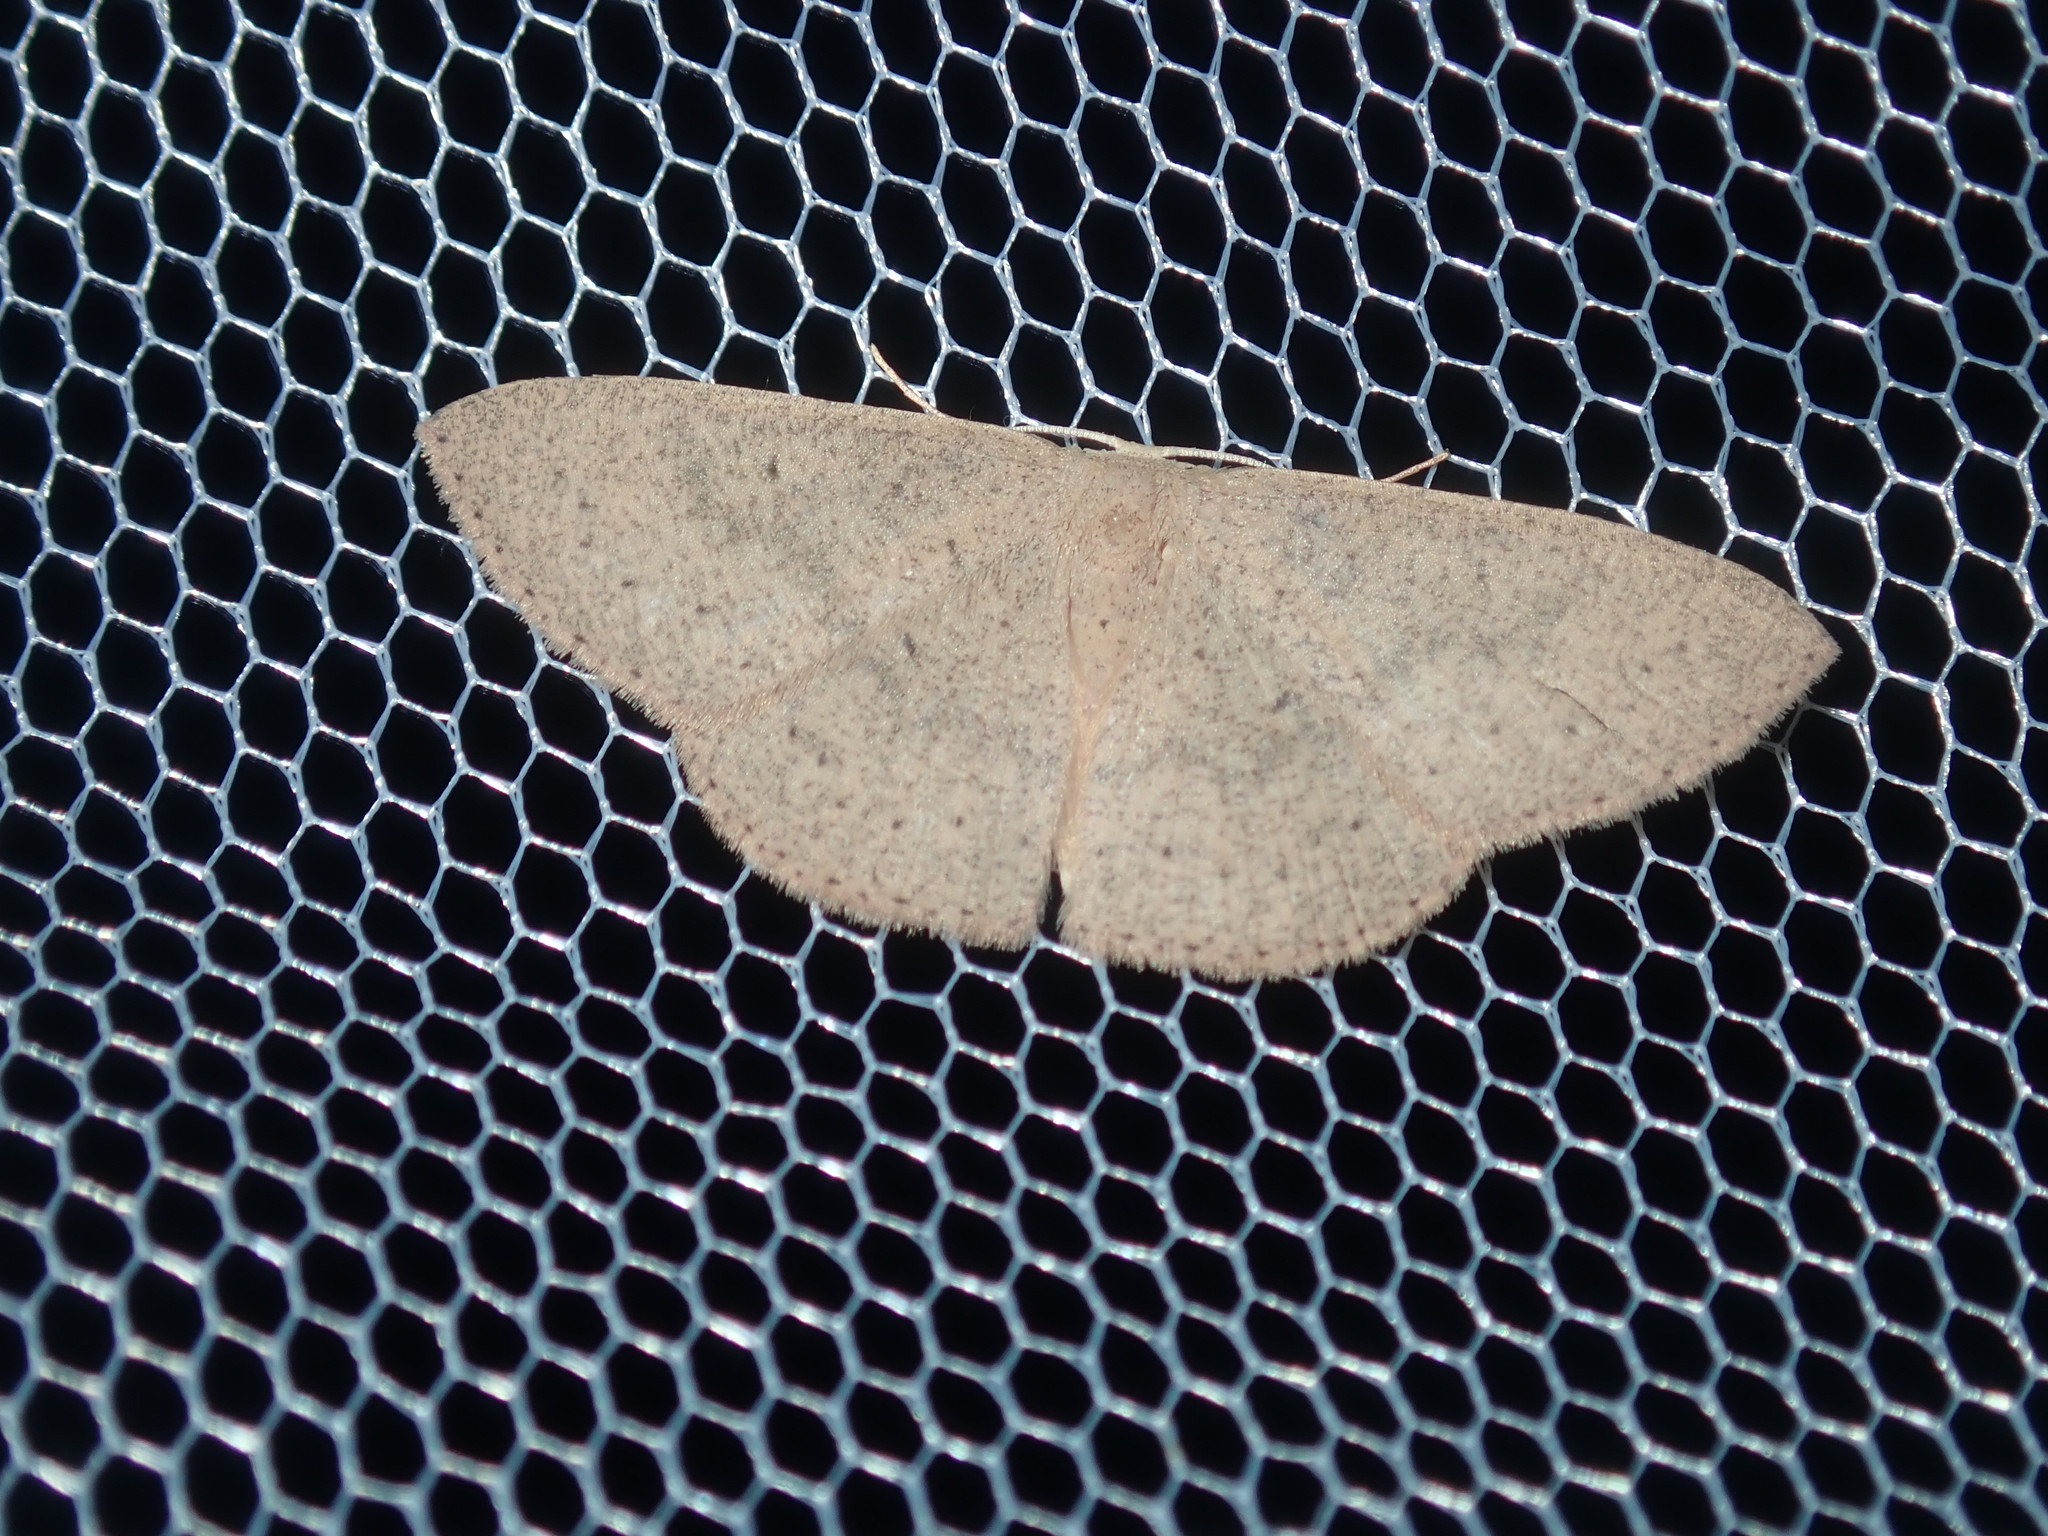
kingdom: Animalia
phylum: Arthropoda
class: Insecta
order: Lepidoptera
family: Geometridae
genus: Cyclophora
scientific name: Cyclophora obstataria
